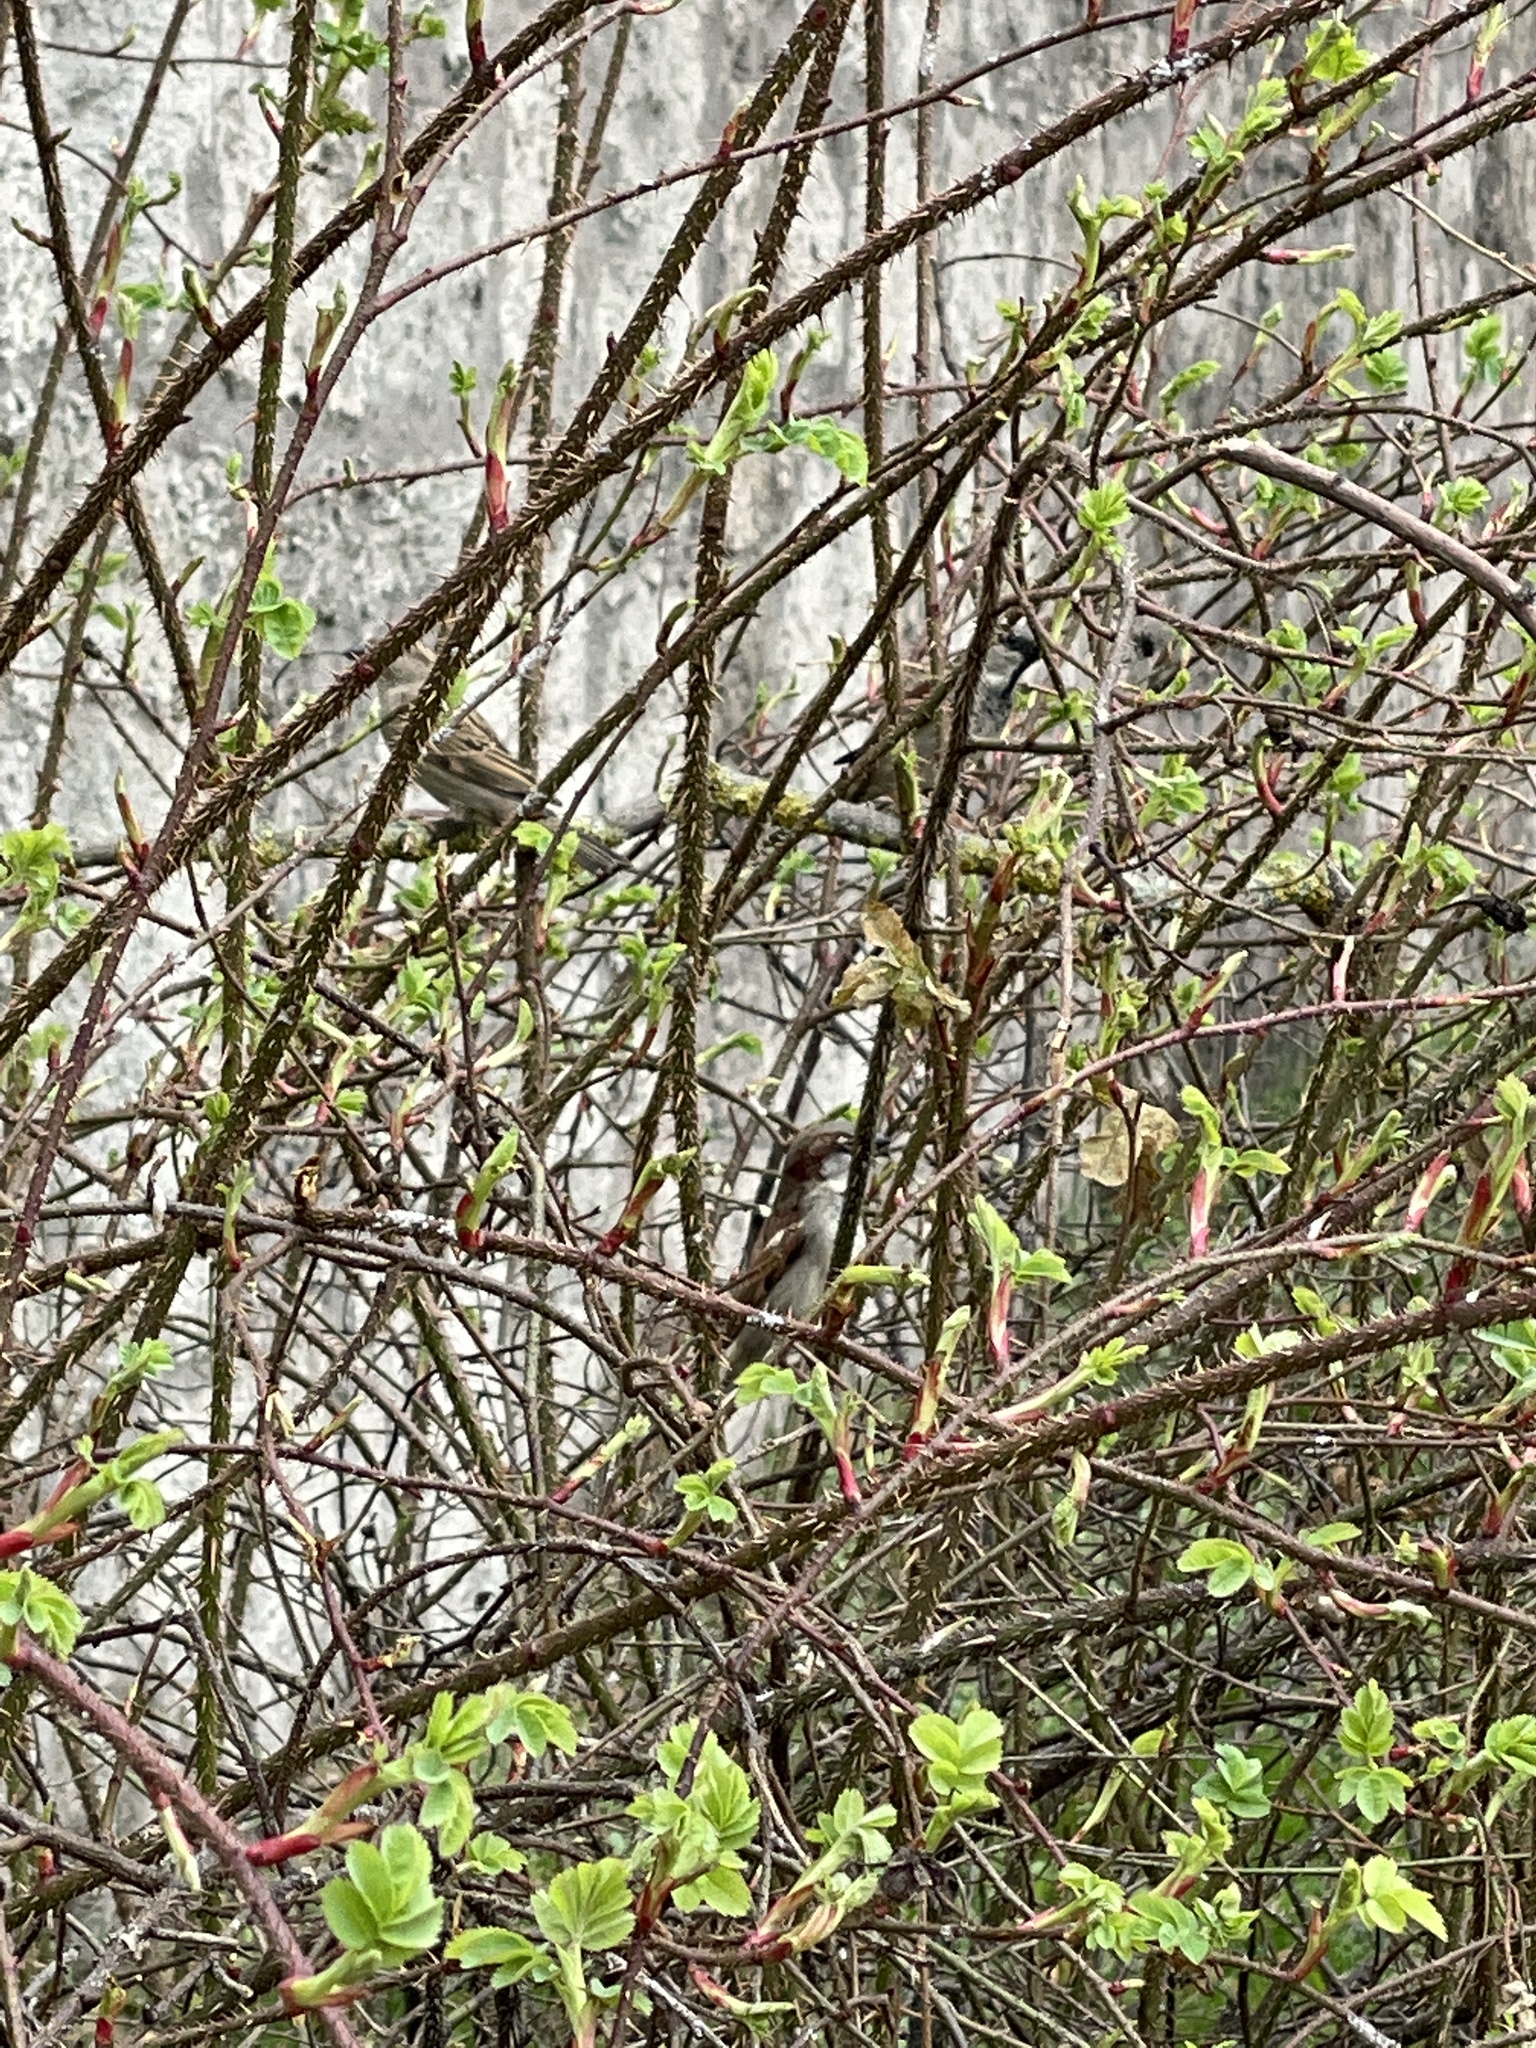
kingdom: Animalia
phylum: Chordata
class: Aves
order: Passeriformes
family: Passeridae
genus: Passer
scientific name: Passer domesticus
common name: House sparrow
